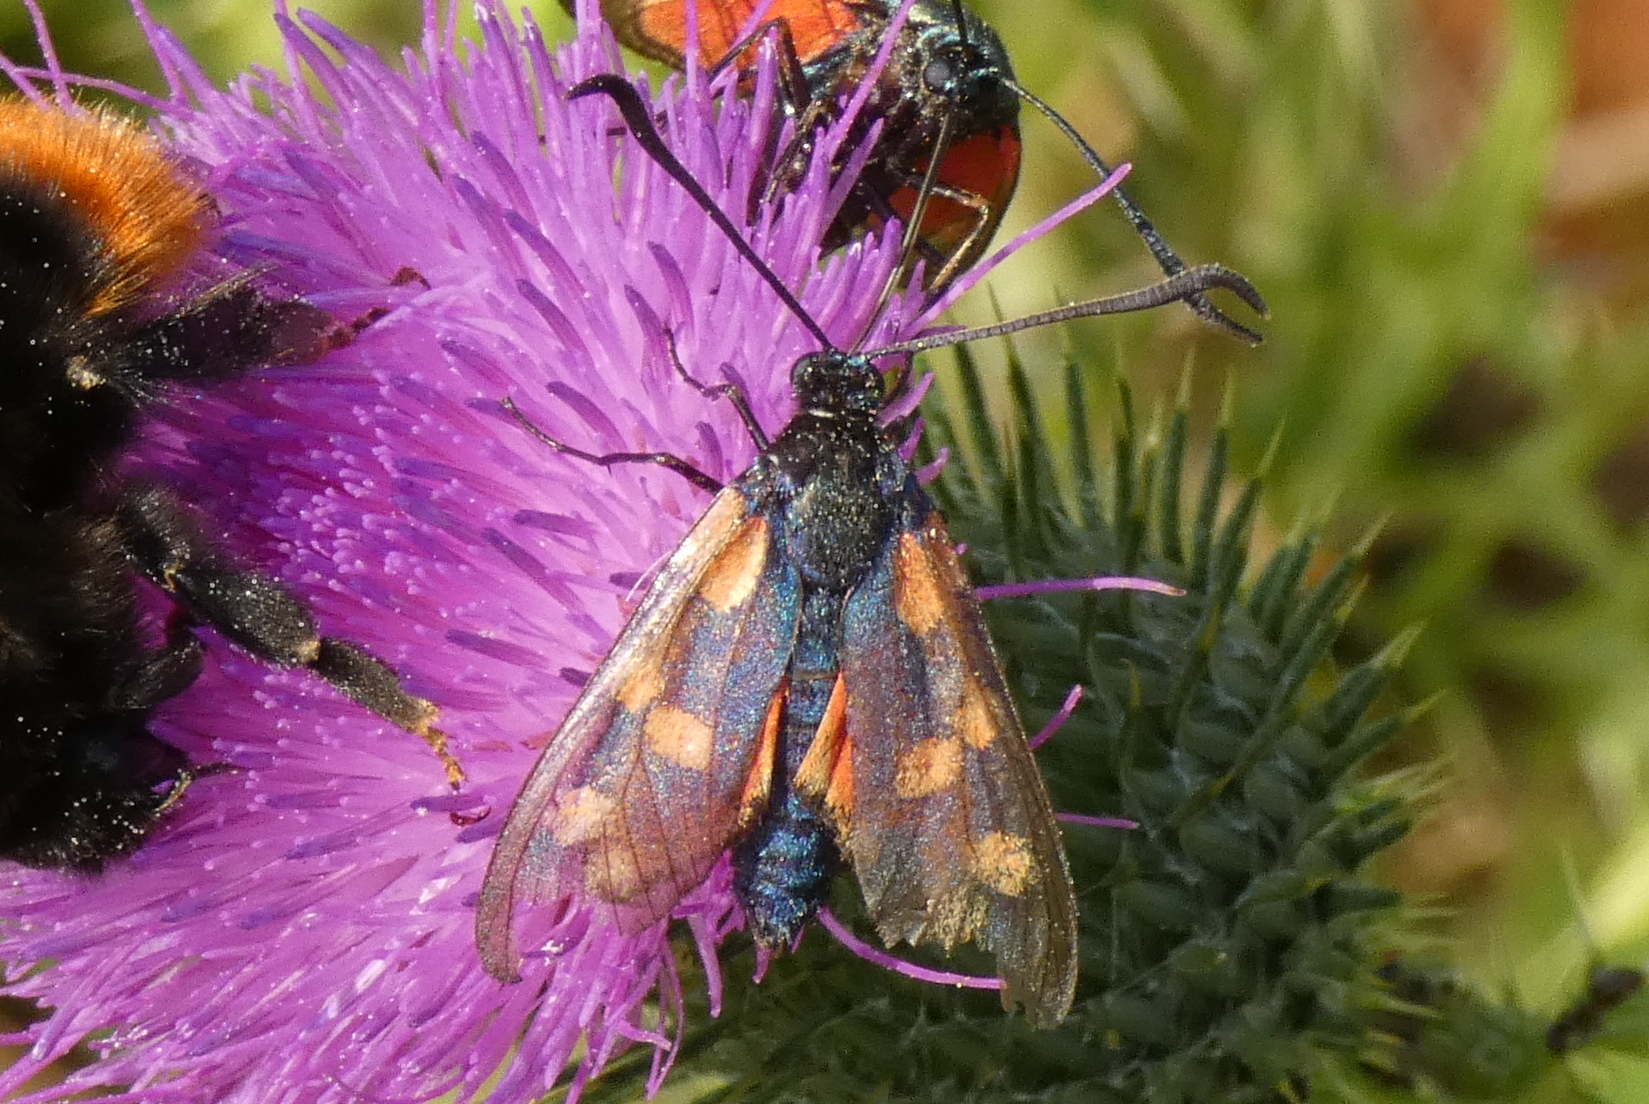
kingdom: Animalia
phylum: Arthropoda
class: Insecta
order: Lepidoptera
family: Zygaenidae
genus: Zygaena
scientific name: Zygaena filipendulae
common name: Six-spot burnet
